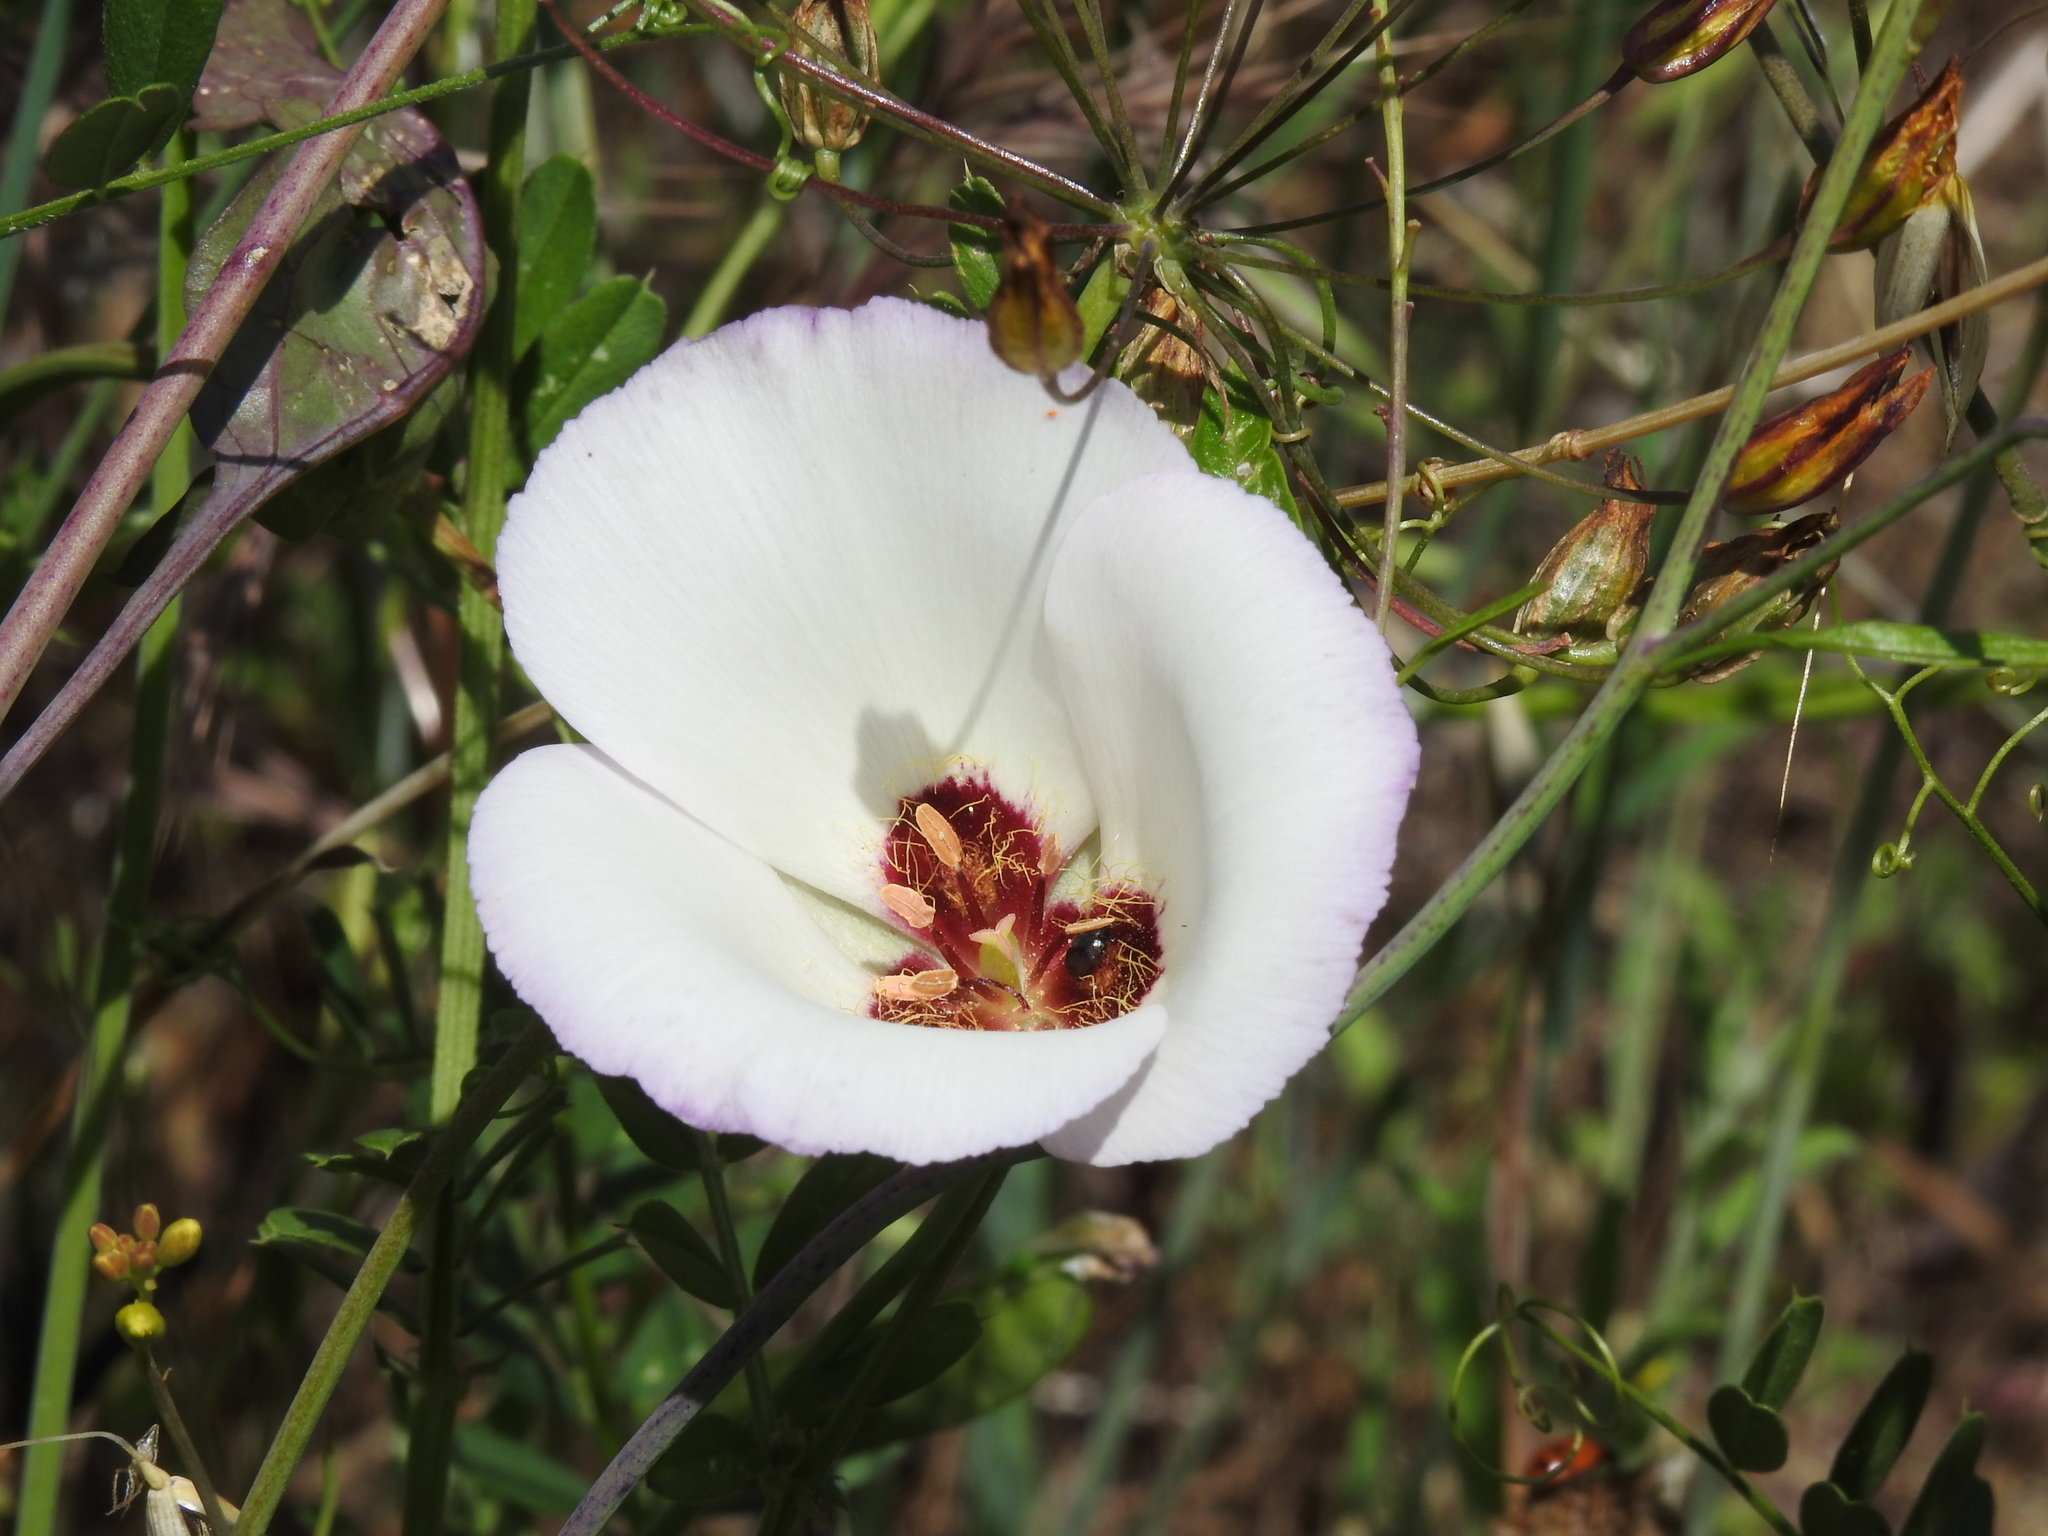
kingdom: Plantae
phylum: Tracheophyta
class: Liliopsida
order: Liliales
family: Liliaceae
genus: Calochortus
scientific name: Calochortus catalinae
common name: Catalina mariposa-lily
